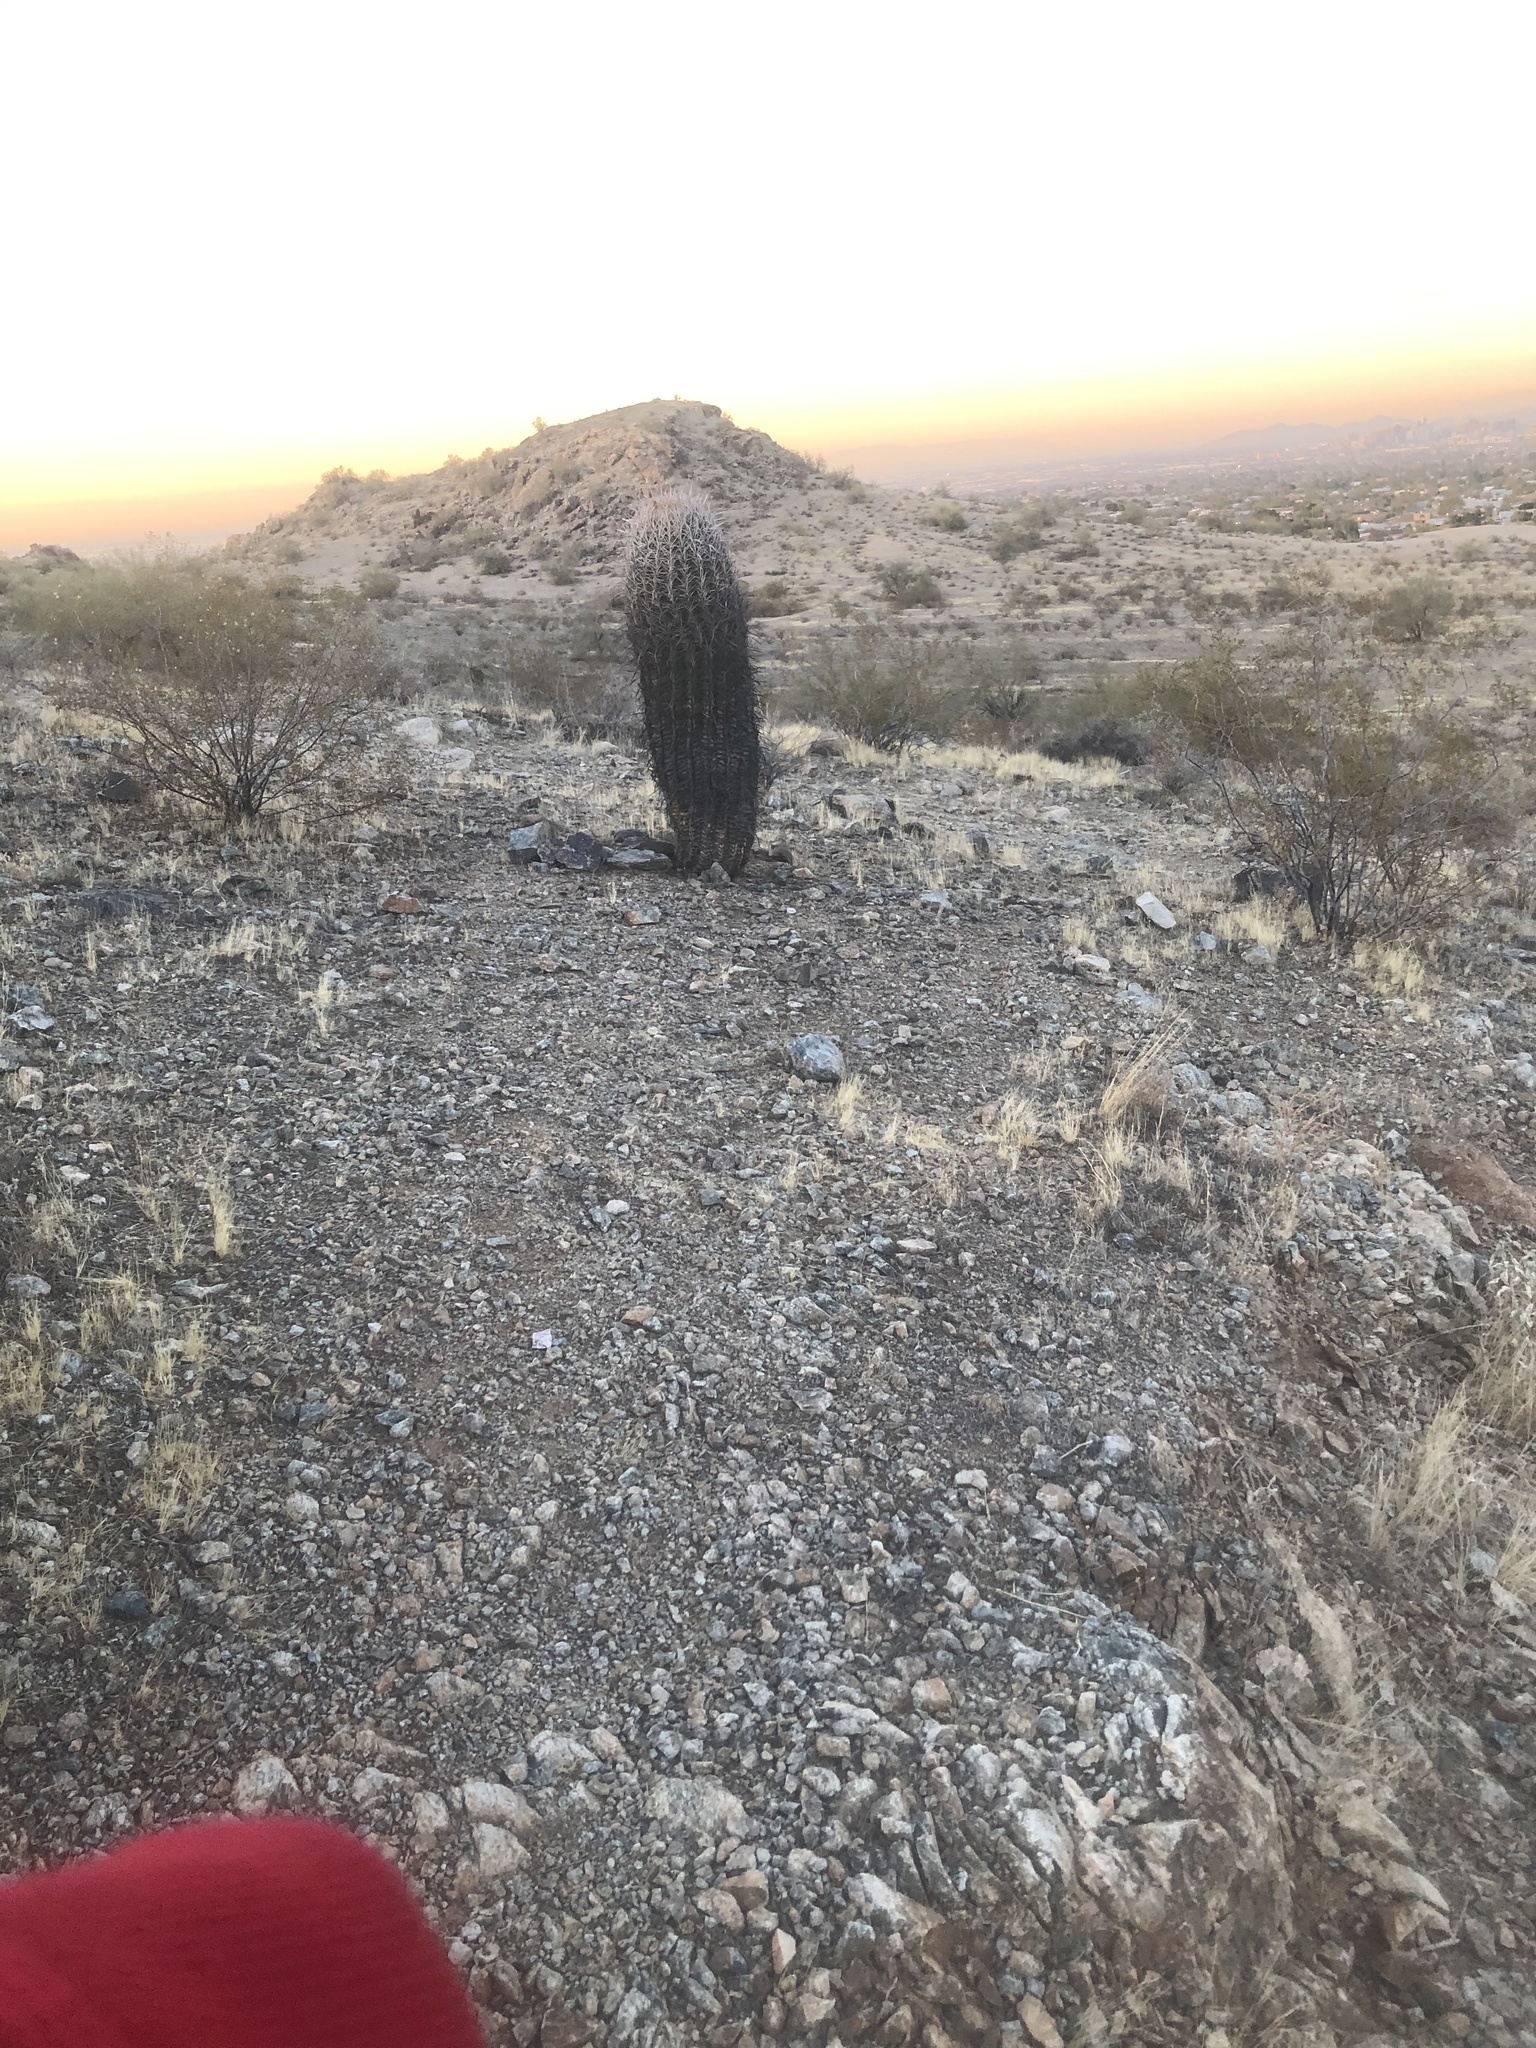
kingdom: Plantae
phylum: Tracheophyta
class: Magnoliopsida
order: Caryophyllales
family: Cactaceae
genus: Ferocactus
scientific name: Ferocactus cylindraceus
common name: California barrel cactus
